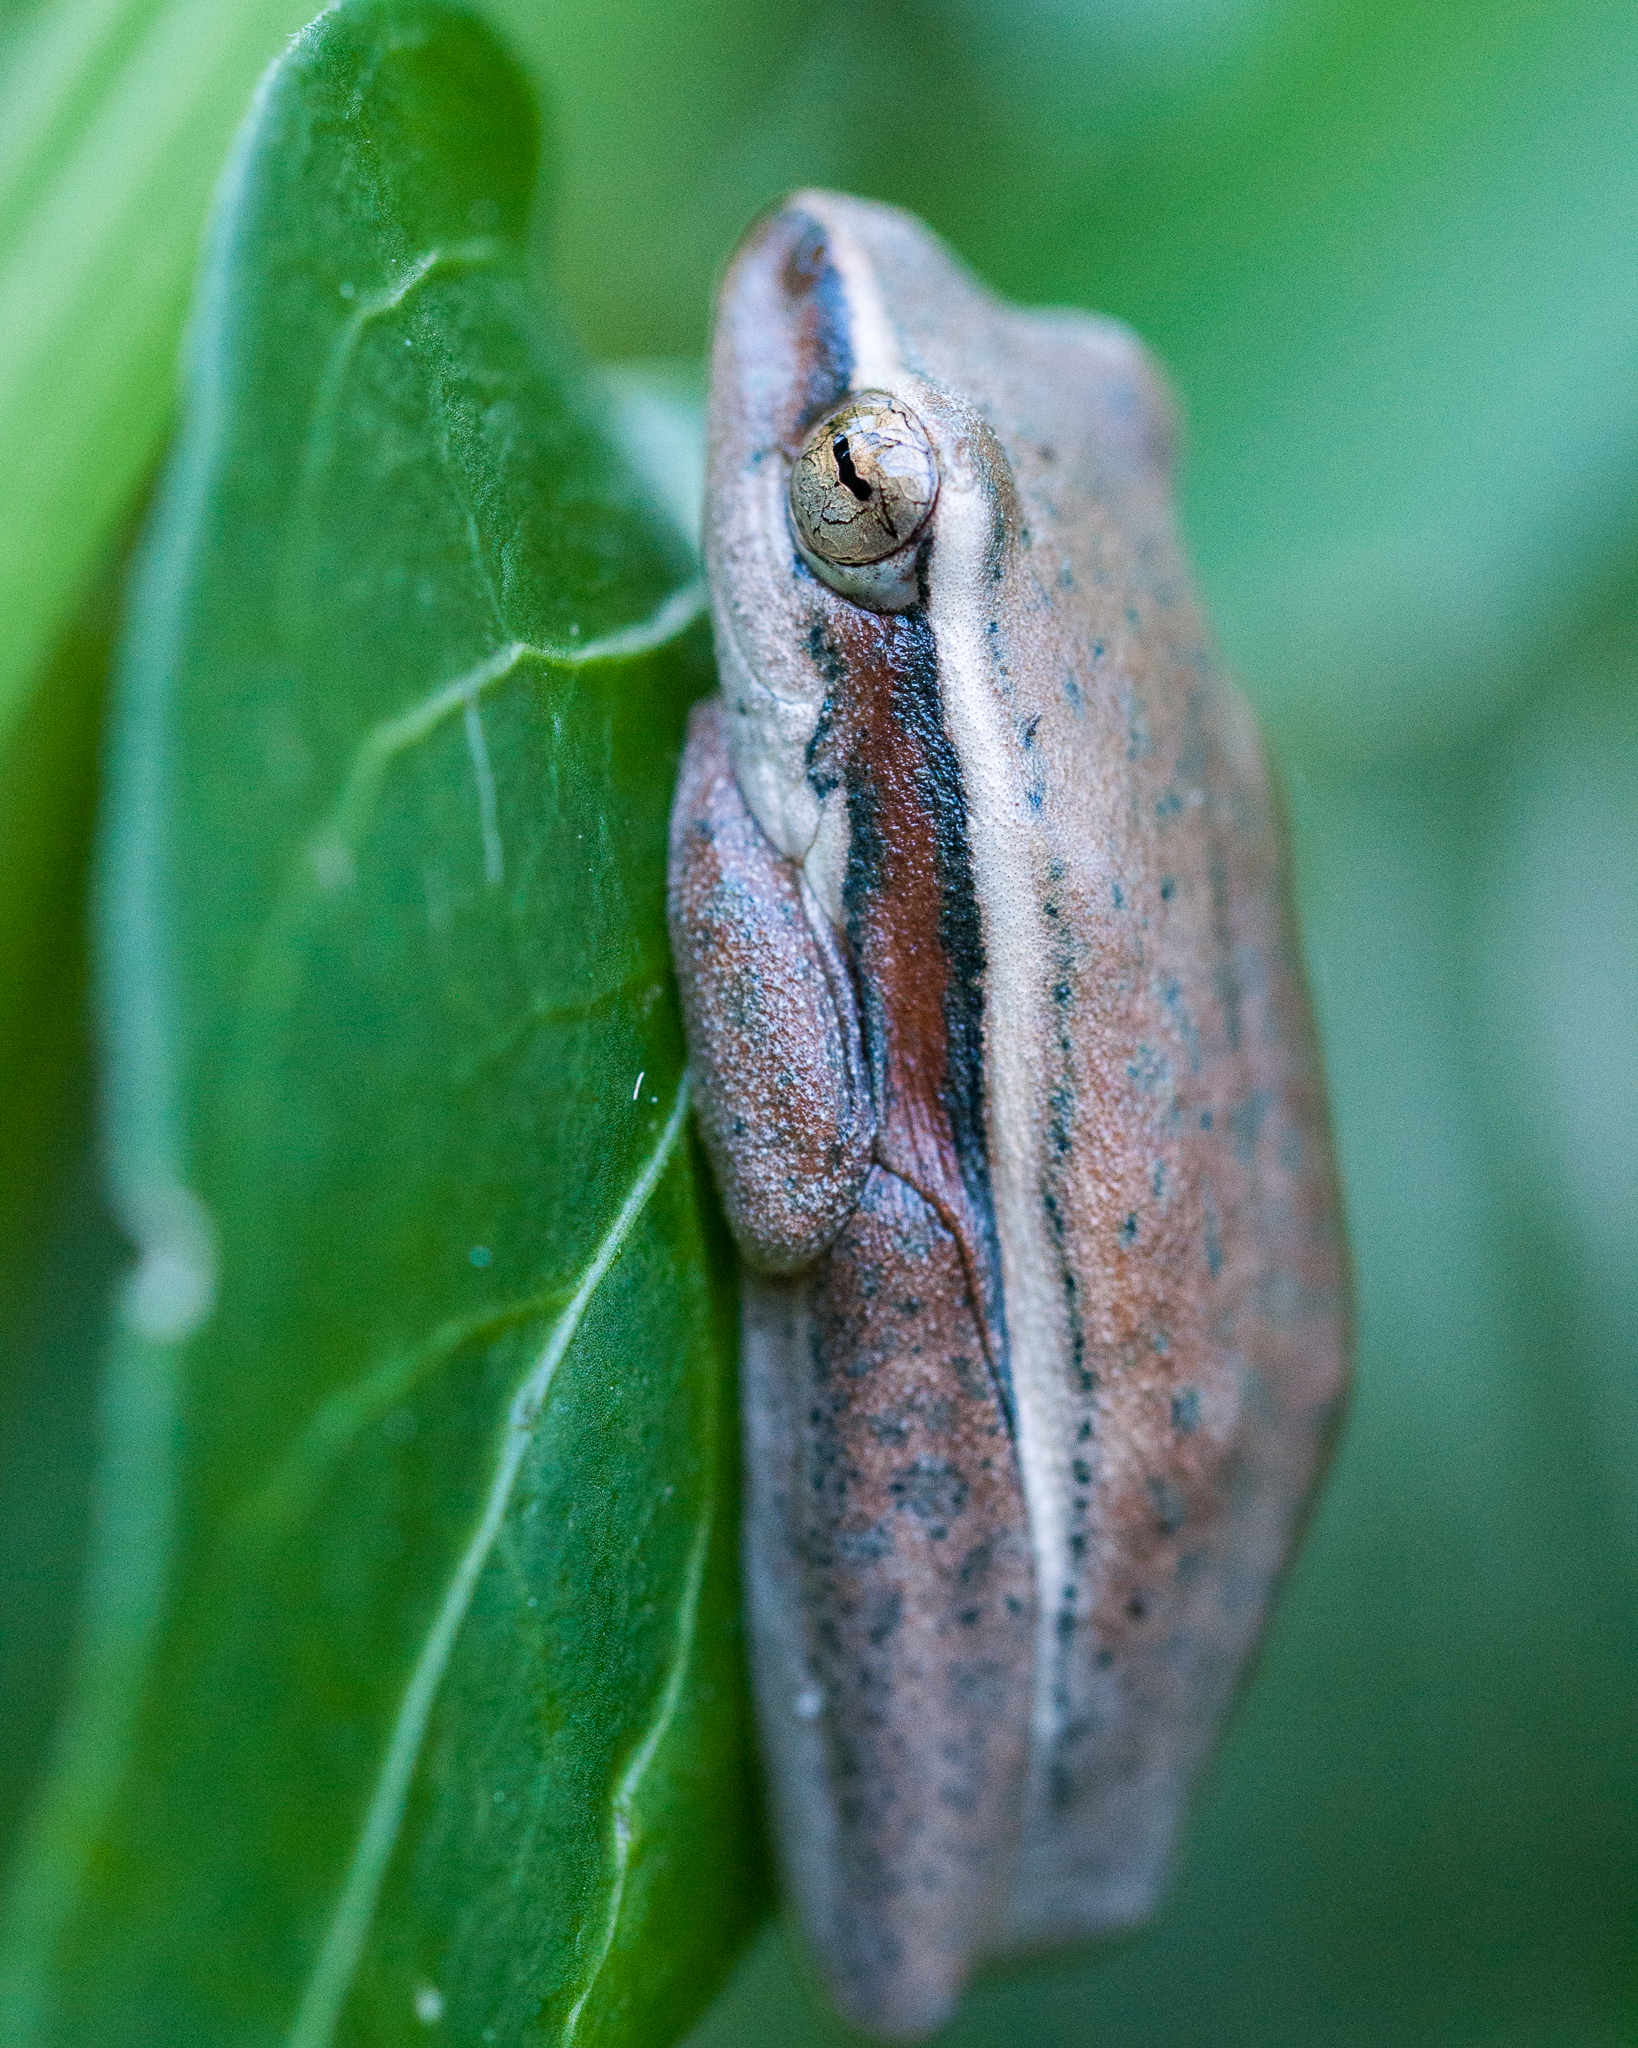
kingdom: Animalia
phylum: Chordata
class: Amphibia
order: Anura
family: Hyperoliidae
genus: Hyperolius
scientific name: Hyperolius horstockii
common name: Arum lily frog
